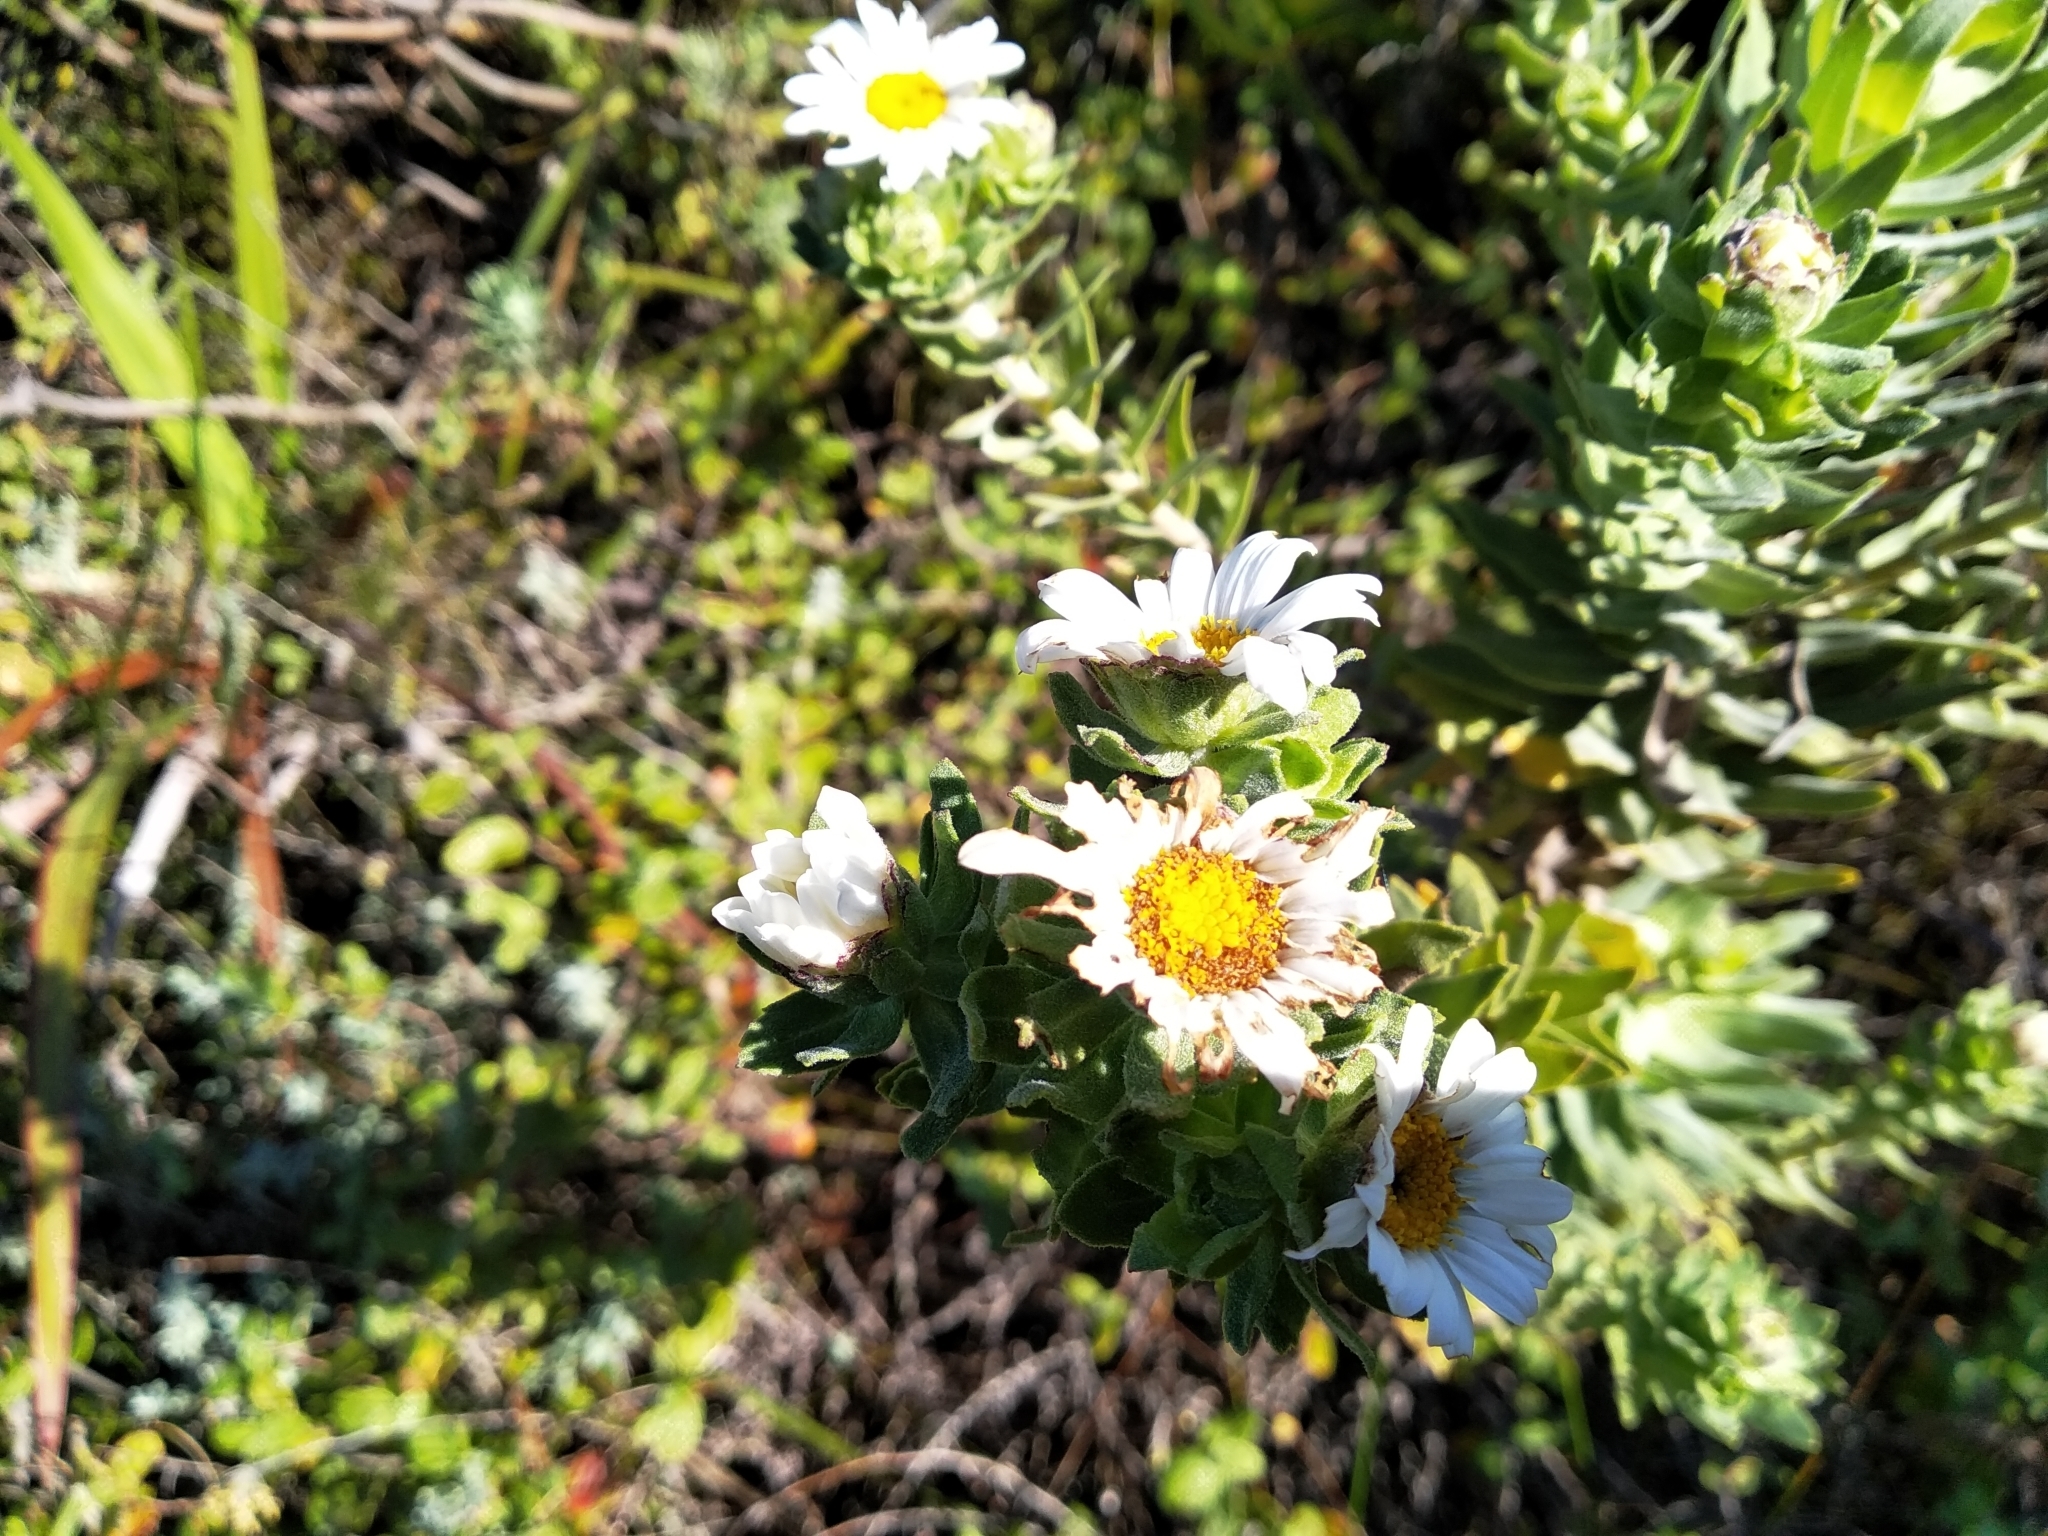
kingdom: Plantae
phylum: Tracheophyta
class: Magnoliopsida
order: Asterales
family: Asteraceae
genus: Osmitopsis
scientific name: Osmitopsis asteriscoides
